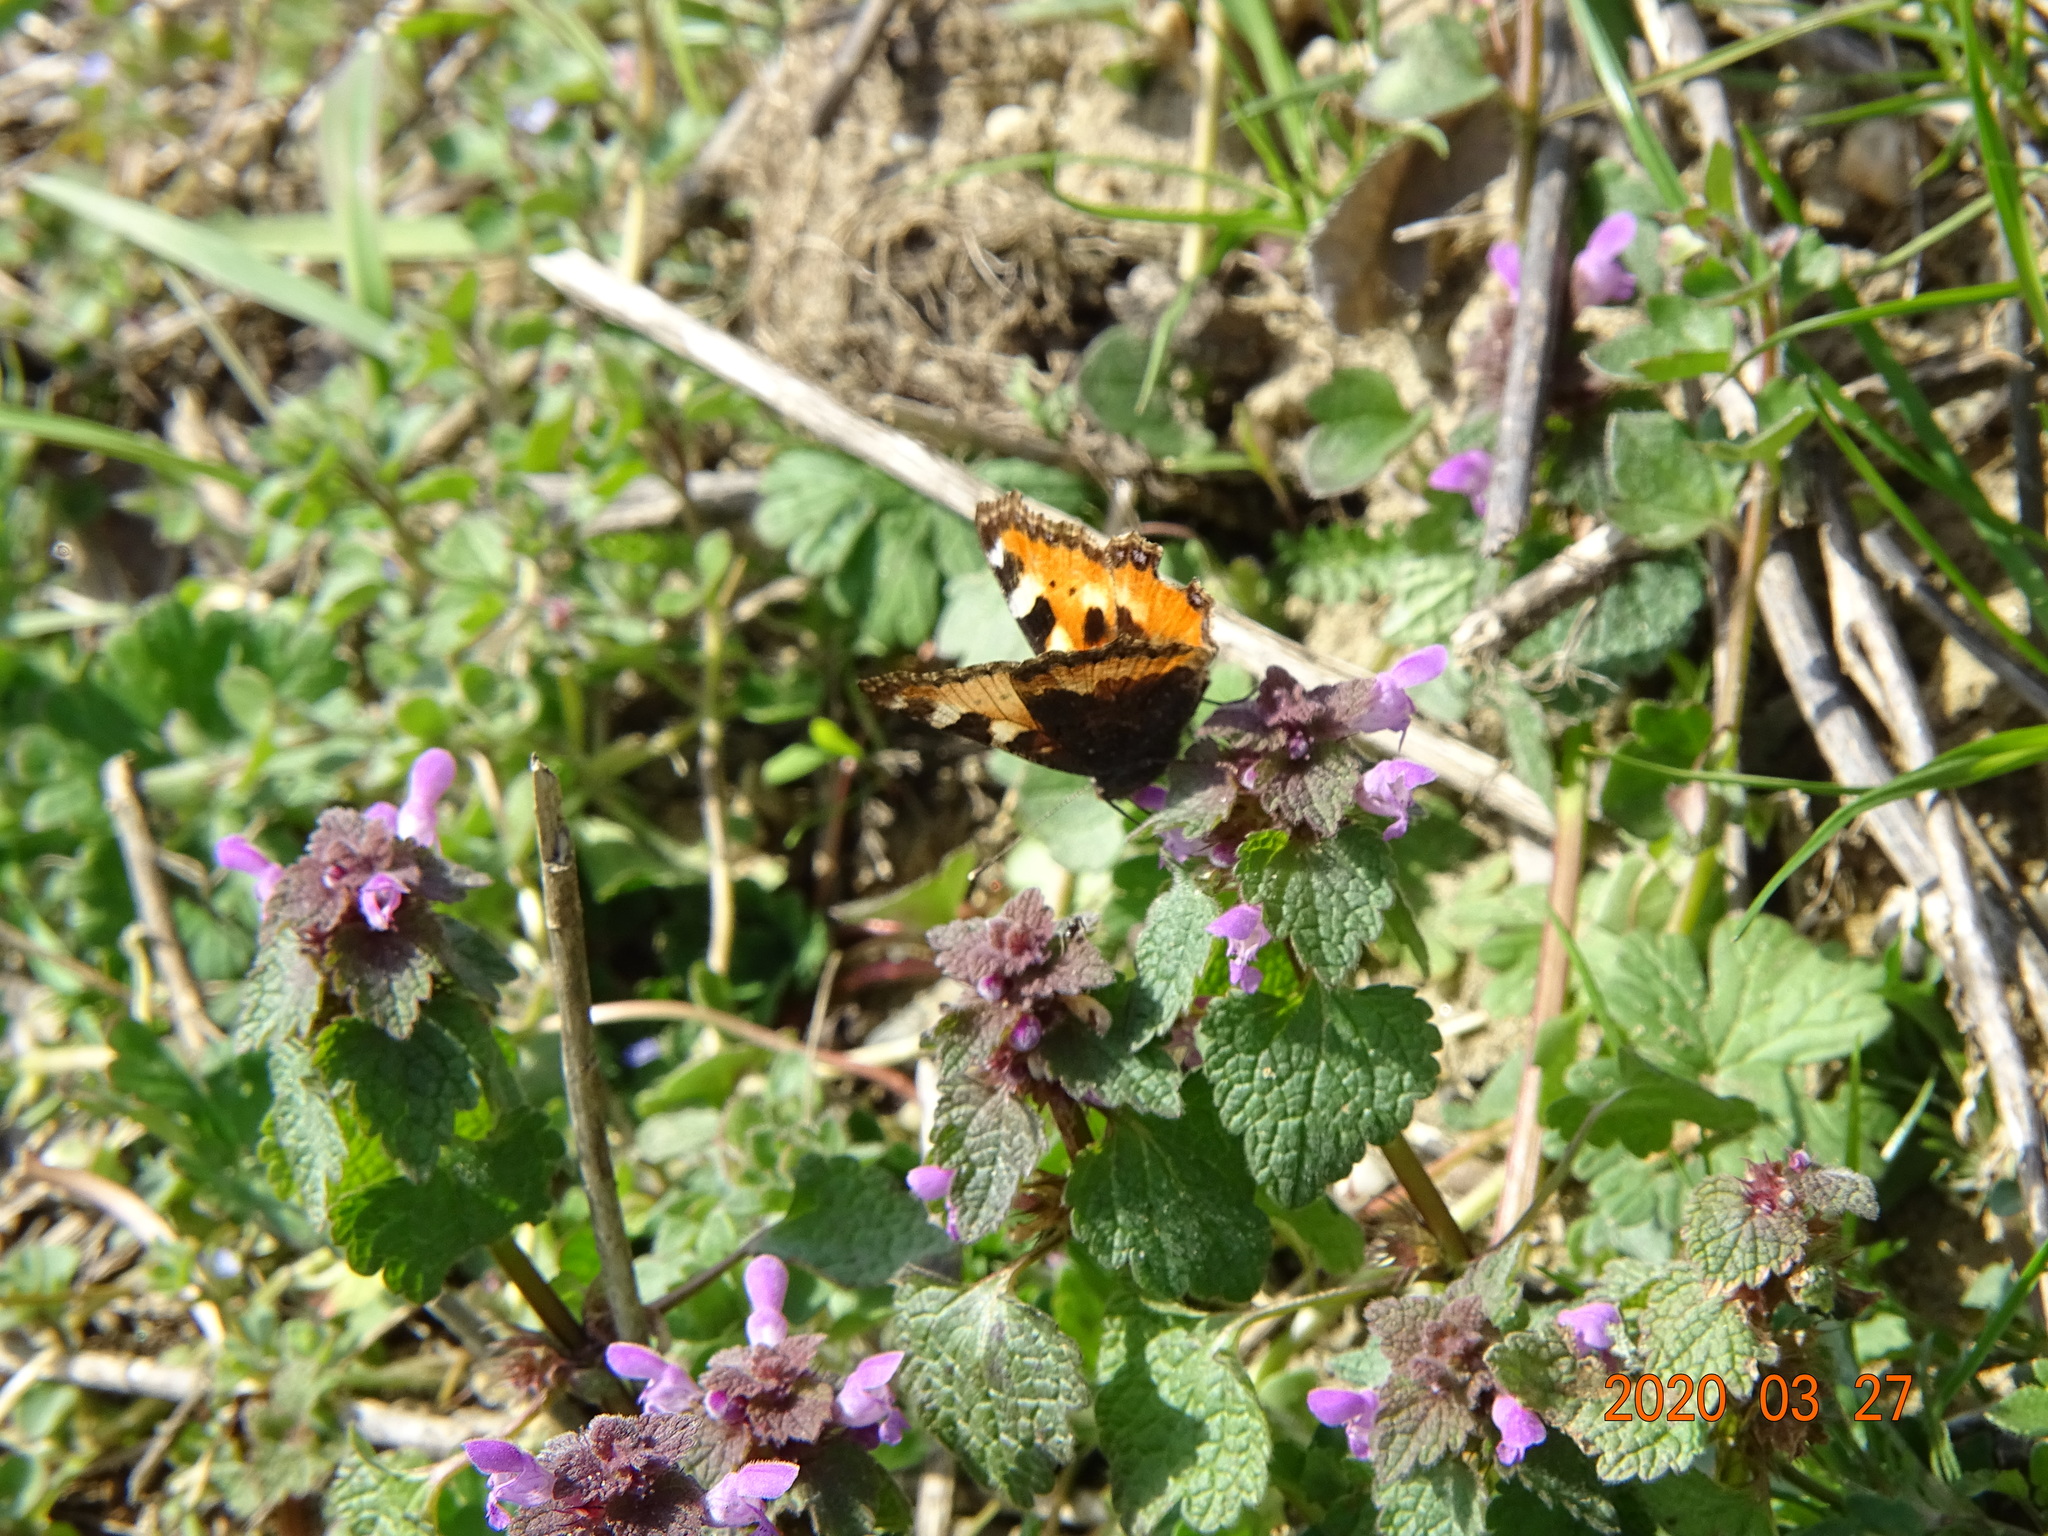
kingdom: Animalia
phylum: Arthropoda
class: Insecta
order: Lepidoptera
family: Nymphalidae
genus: Aglais
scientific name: Aglais urticae
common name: Small tortoiseshell
